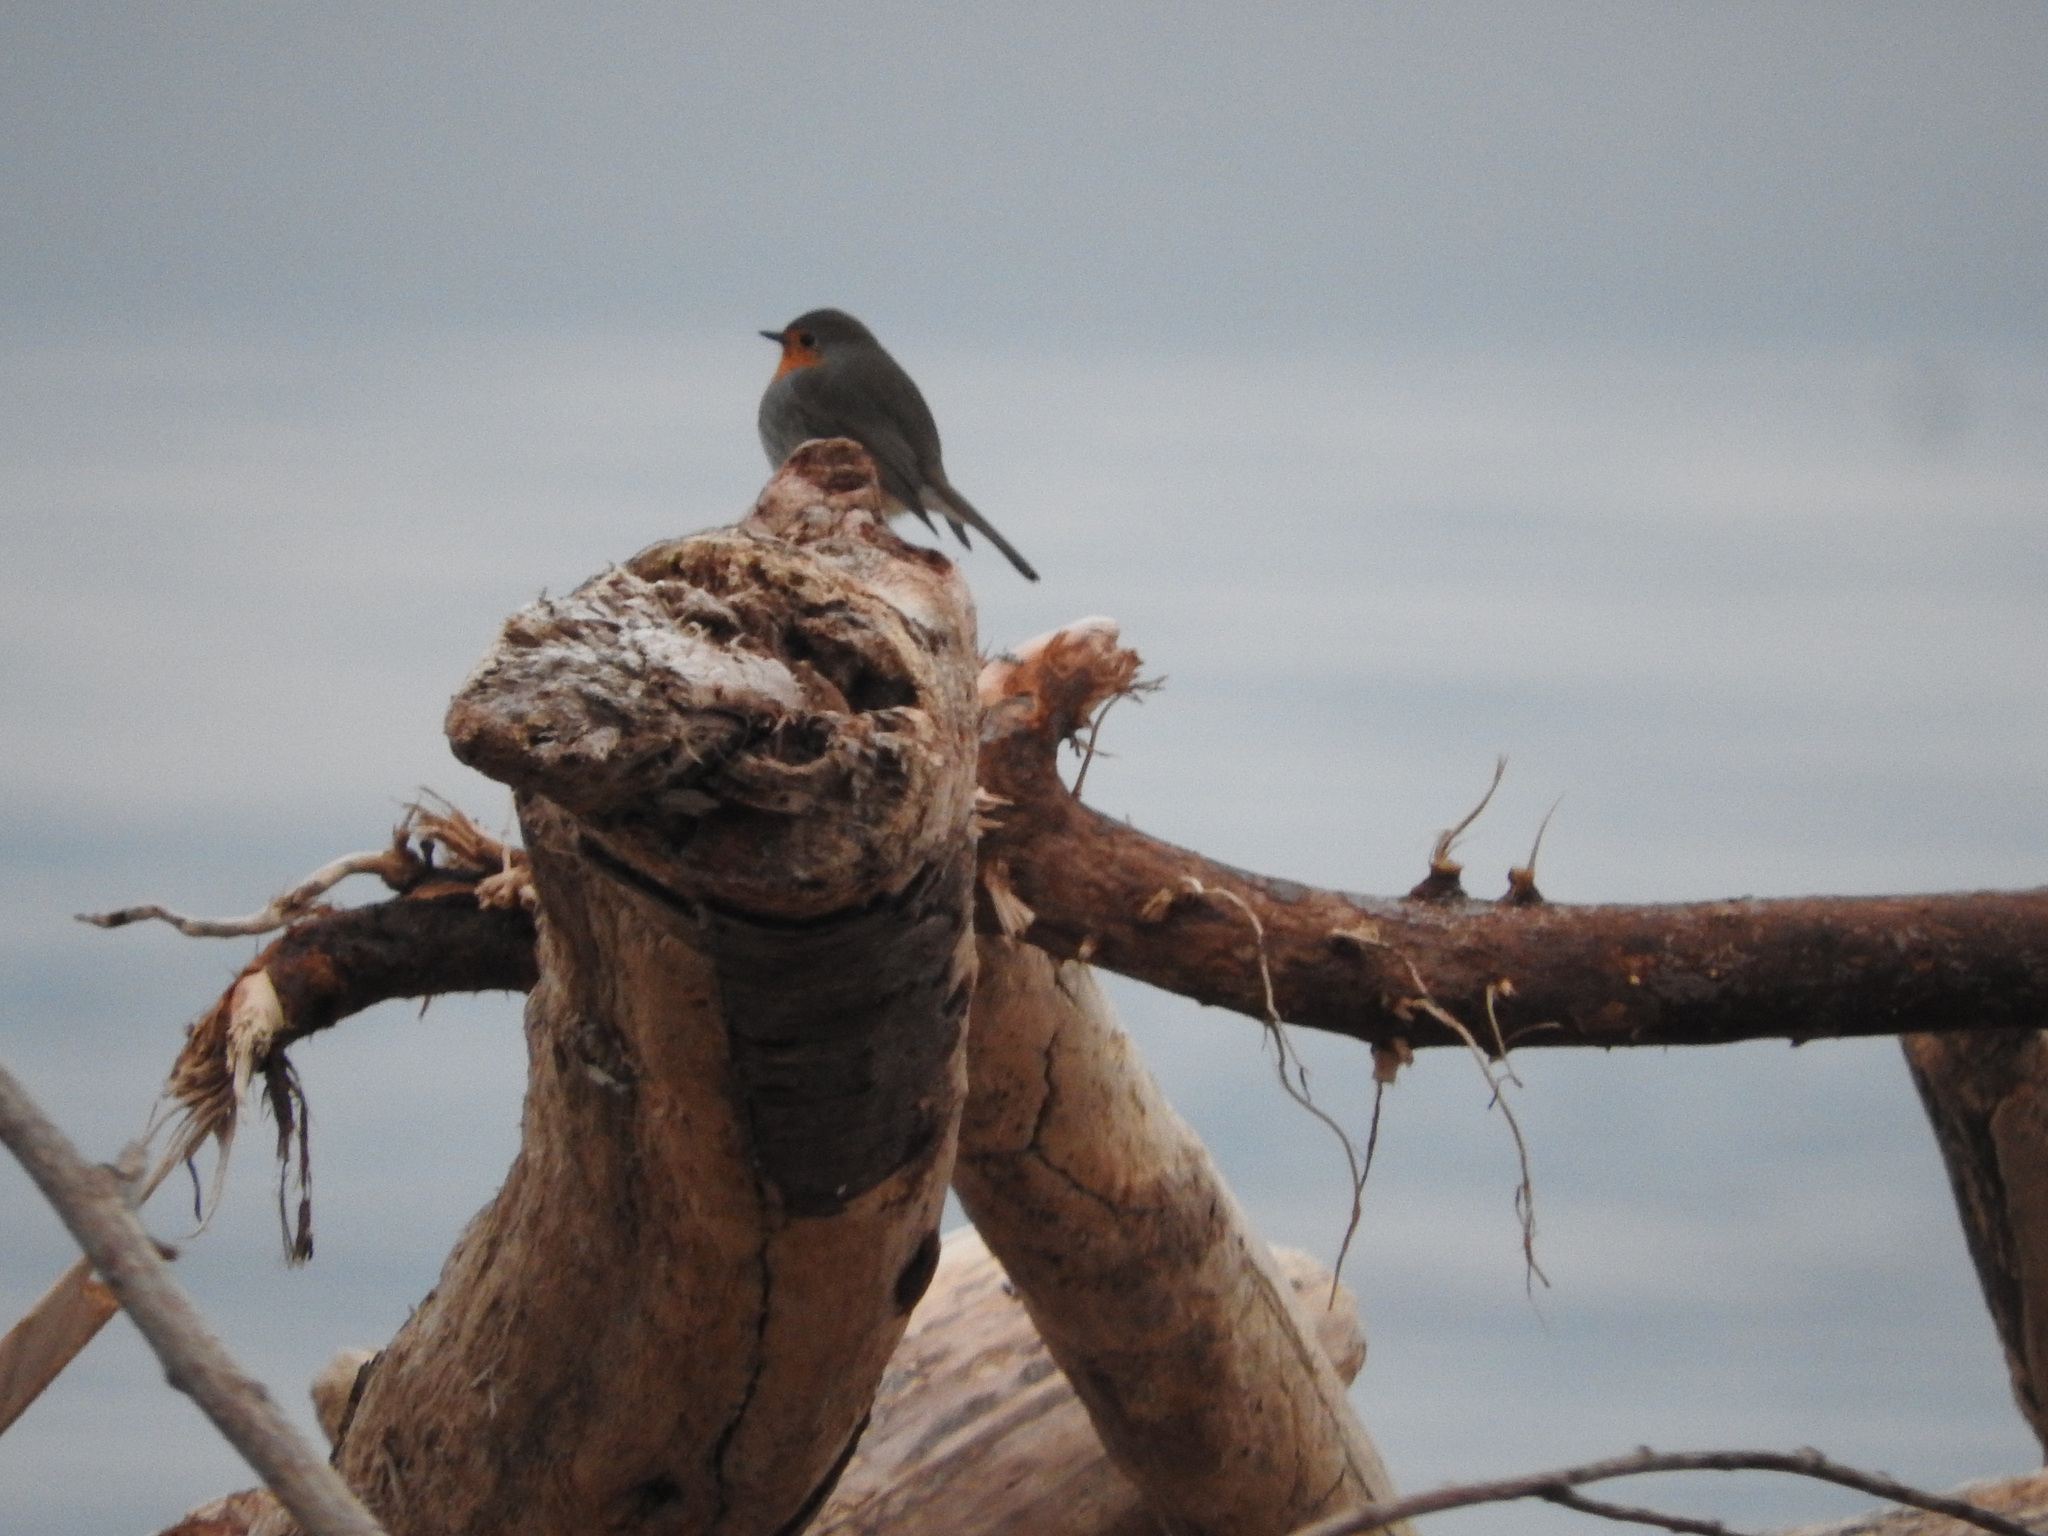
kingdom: Animalia
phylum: Chordata
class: Aves
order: Passeriformes
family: Muscicapidae
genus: Erithacus
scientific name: Erithacus rubecula
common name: European robin
